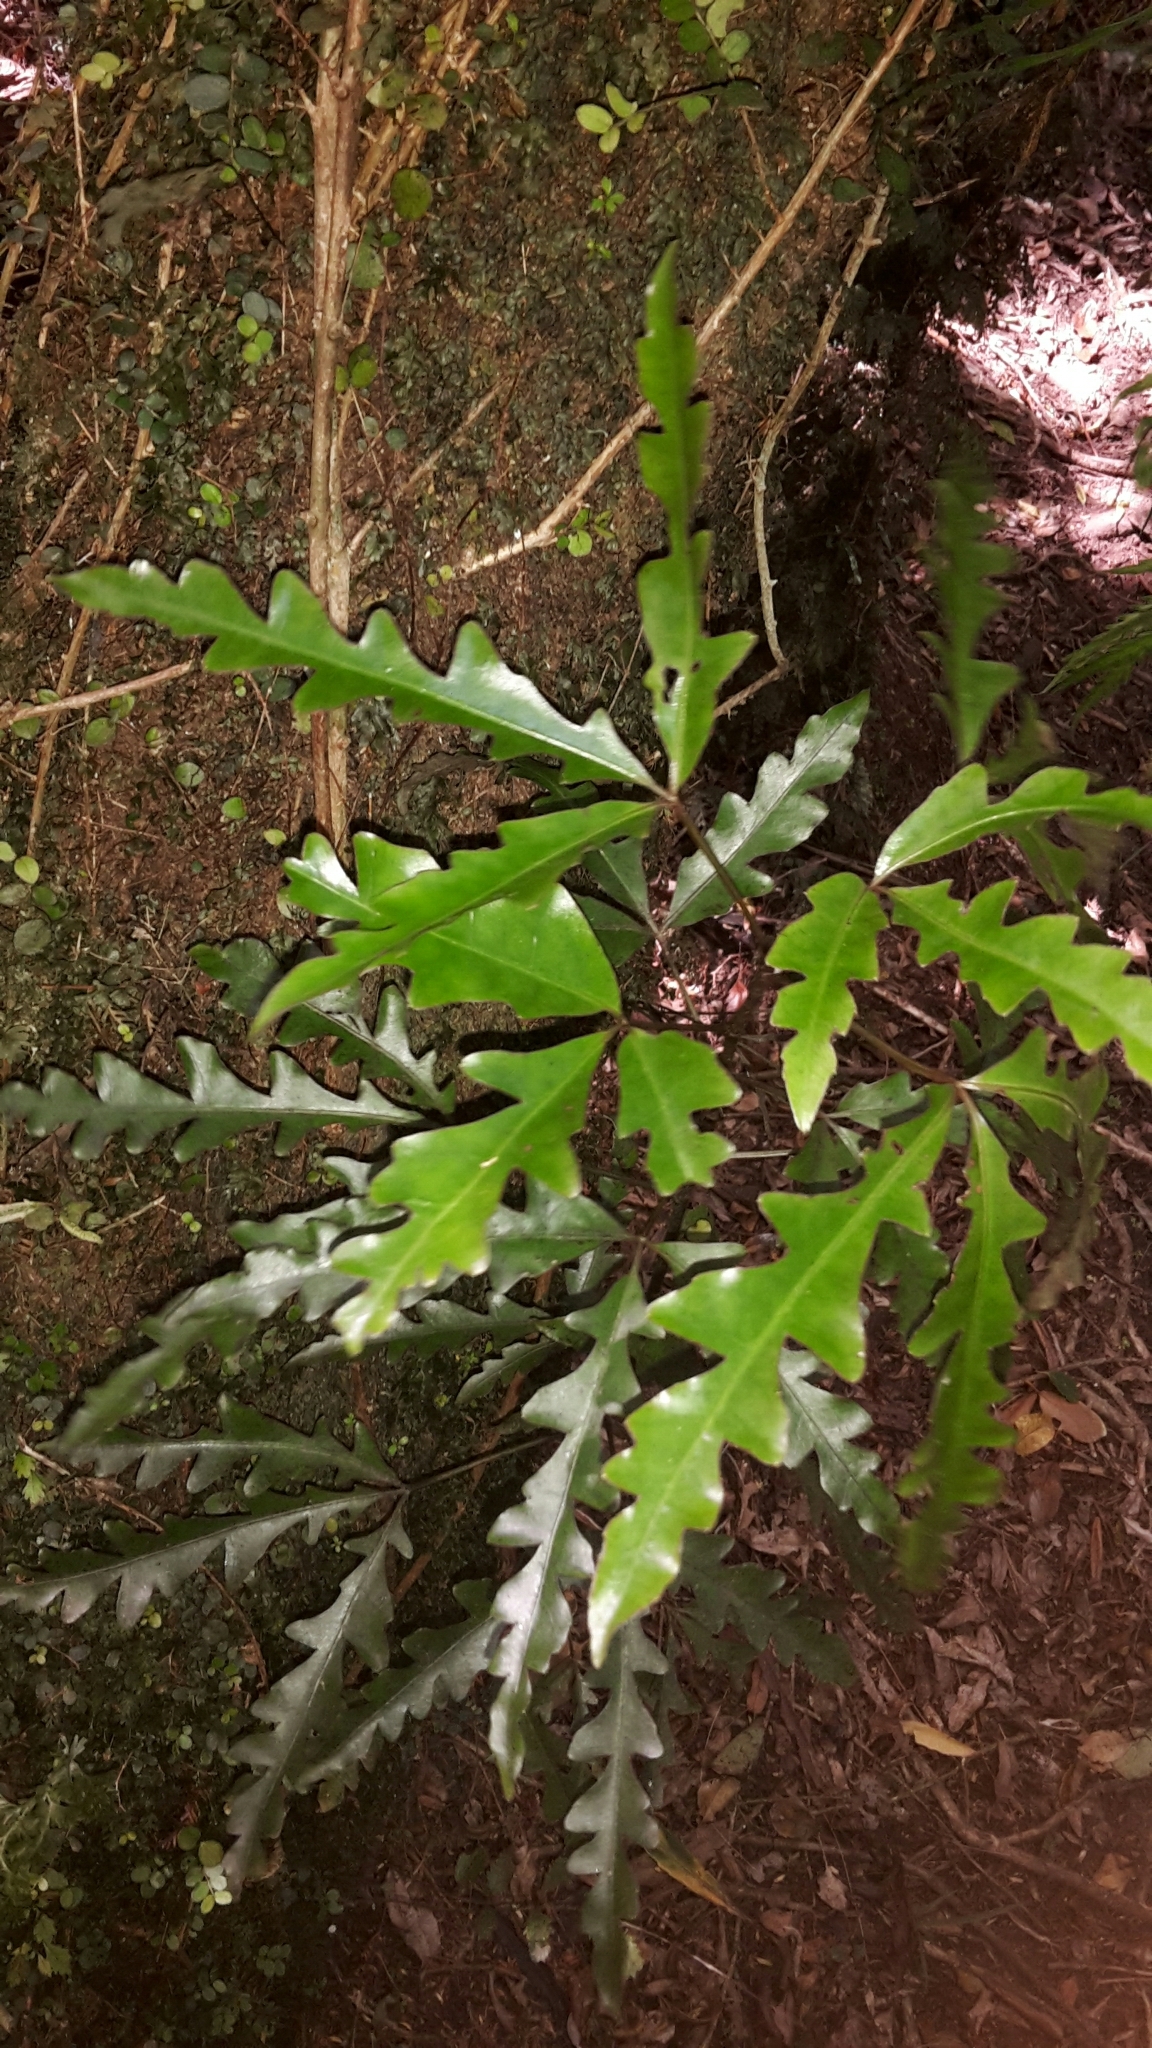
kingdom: Plantae
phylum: Tracheophyta
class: Magnoliopsida
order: Apiales
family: Araliaceae
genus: Raukaua
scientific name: Raukaua edgerleyi
